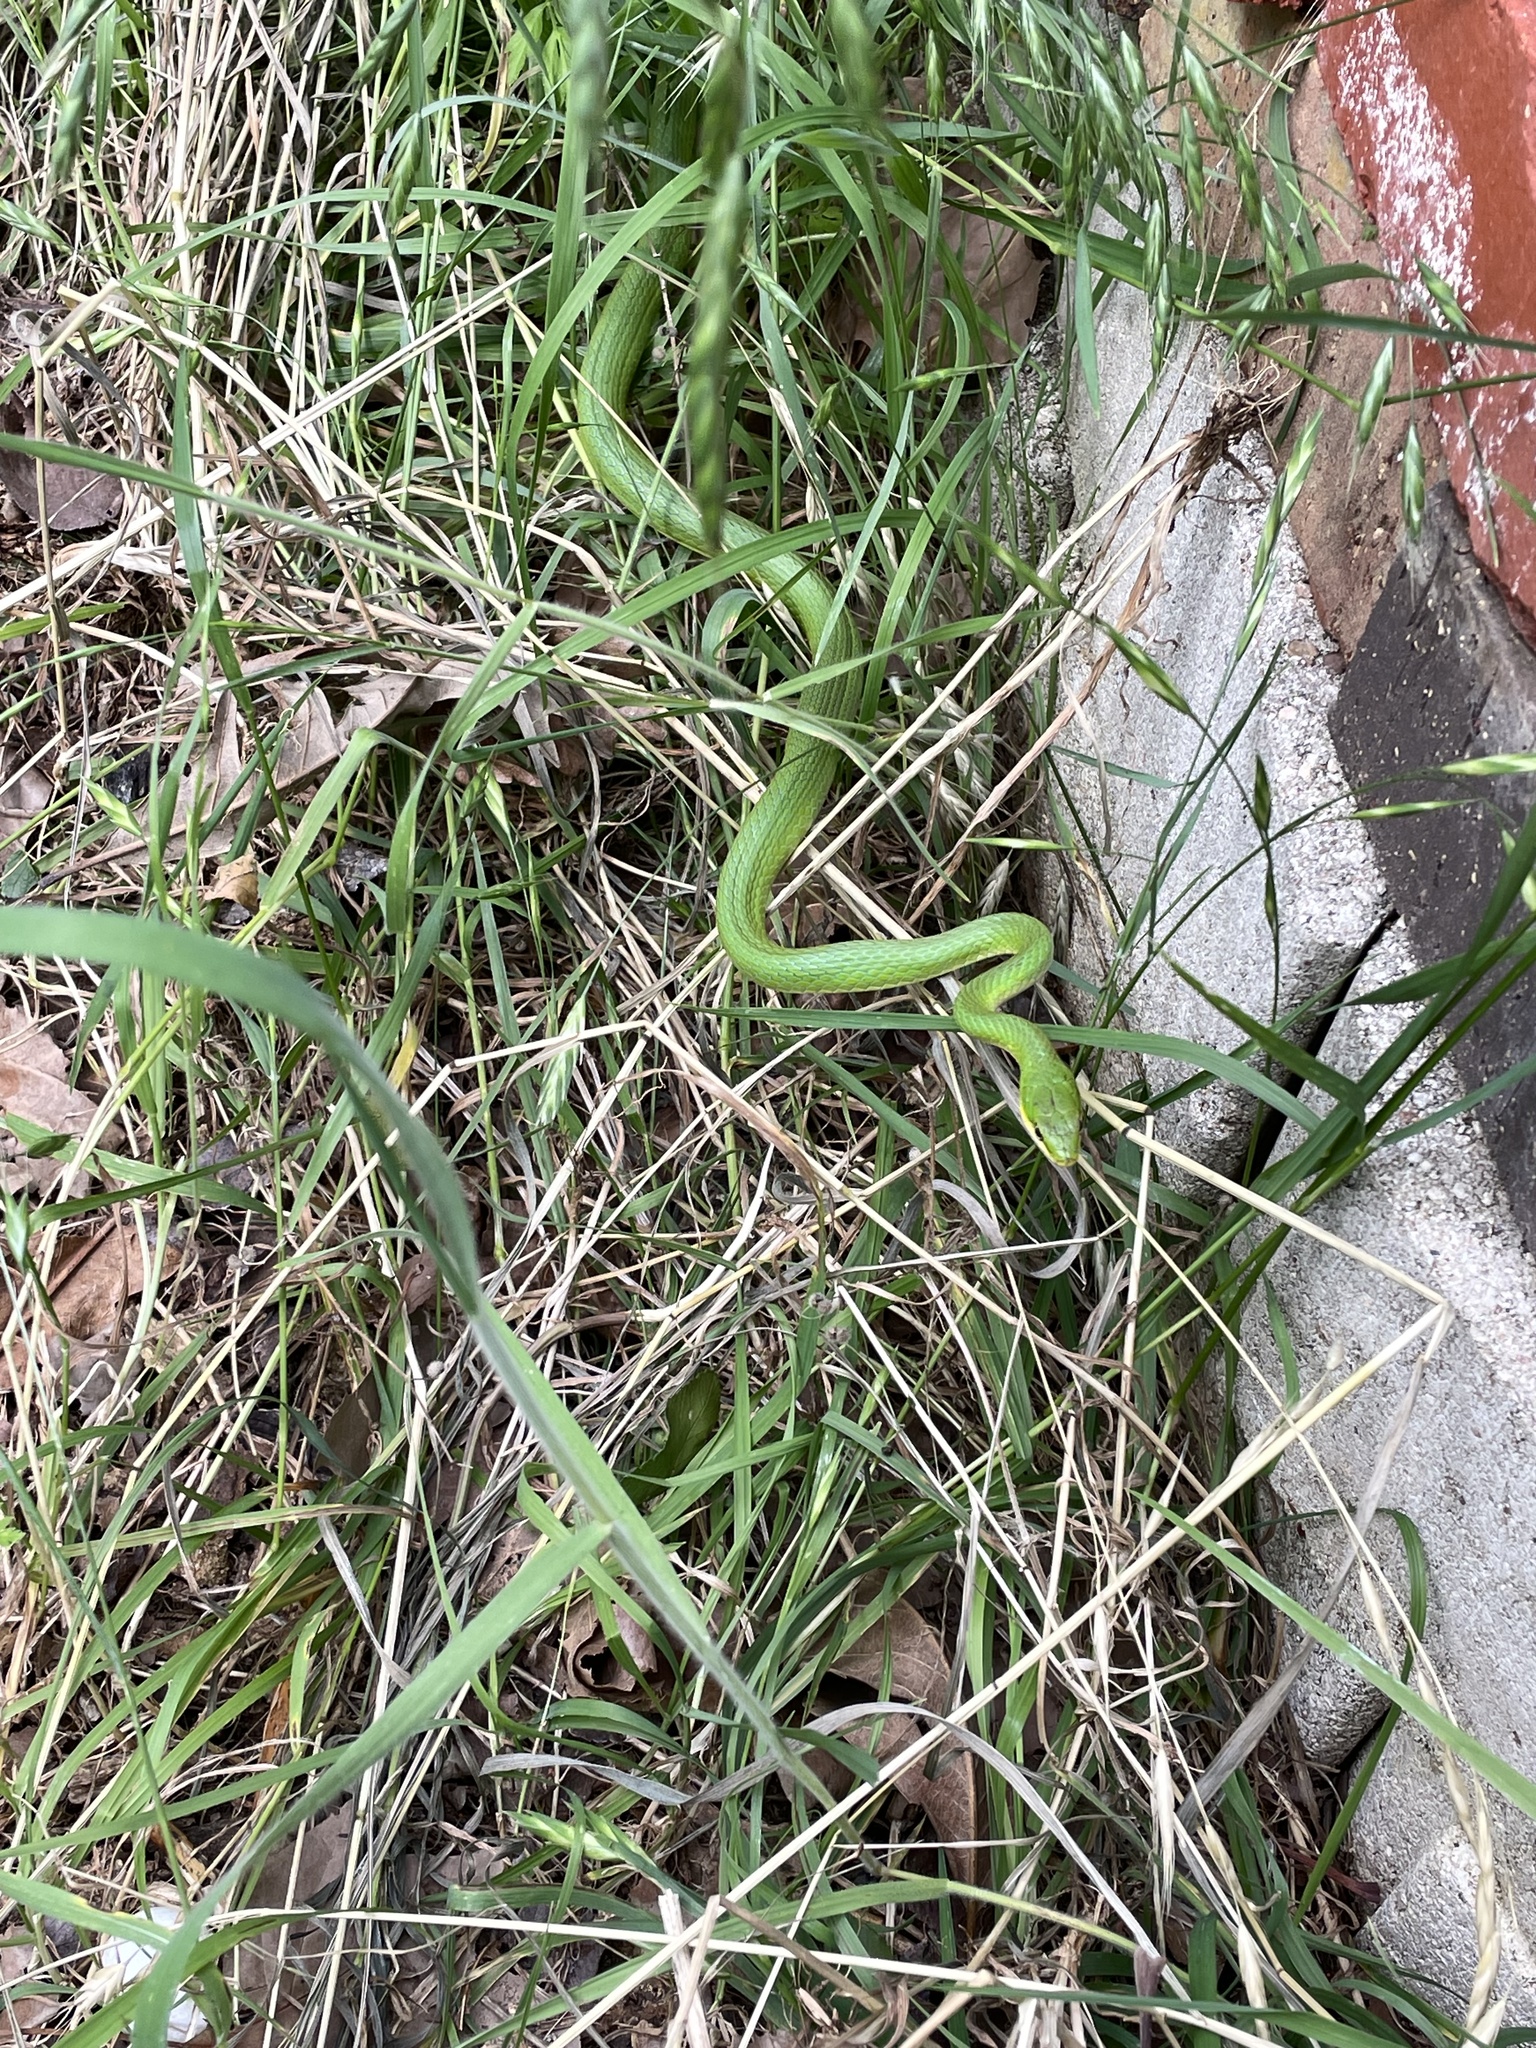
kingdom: Animalia
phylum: Chordata
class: Squamata
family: Colubridae
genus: Opheodrys
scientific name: Opheodrys aestivus
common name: Rough greensnake
